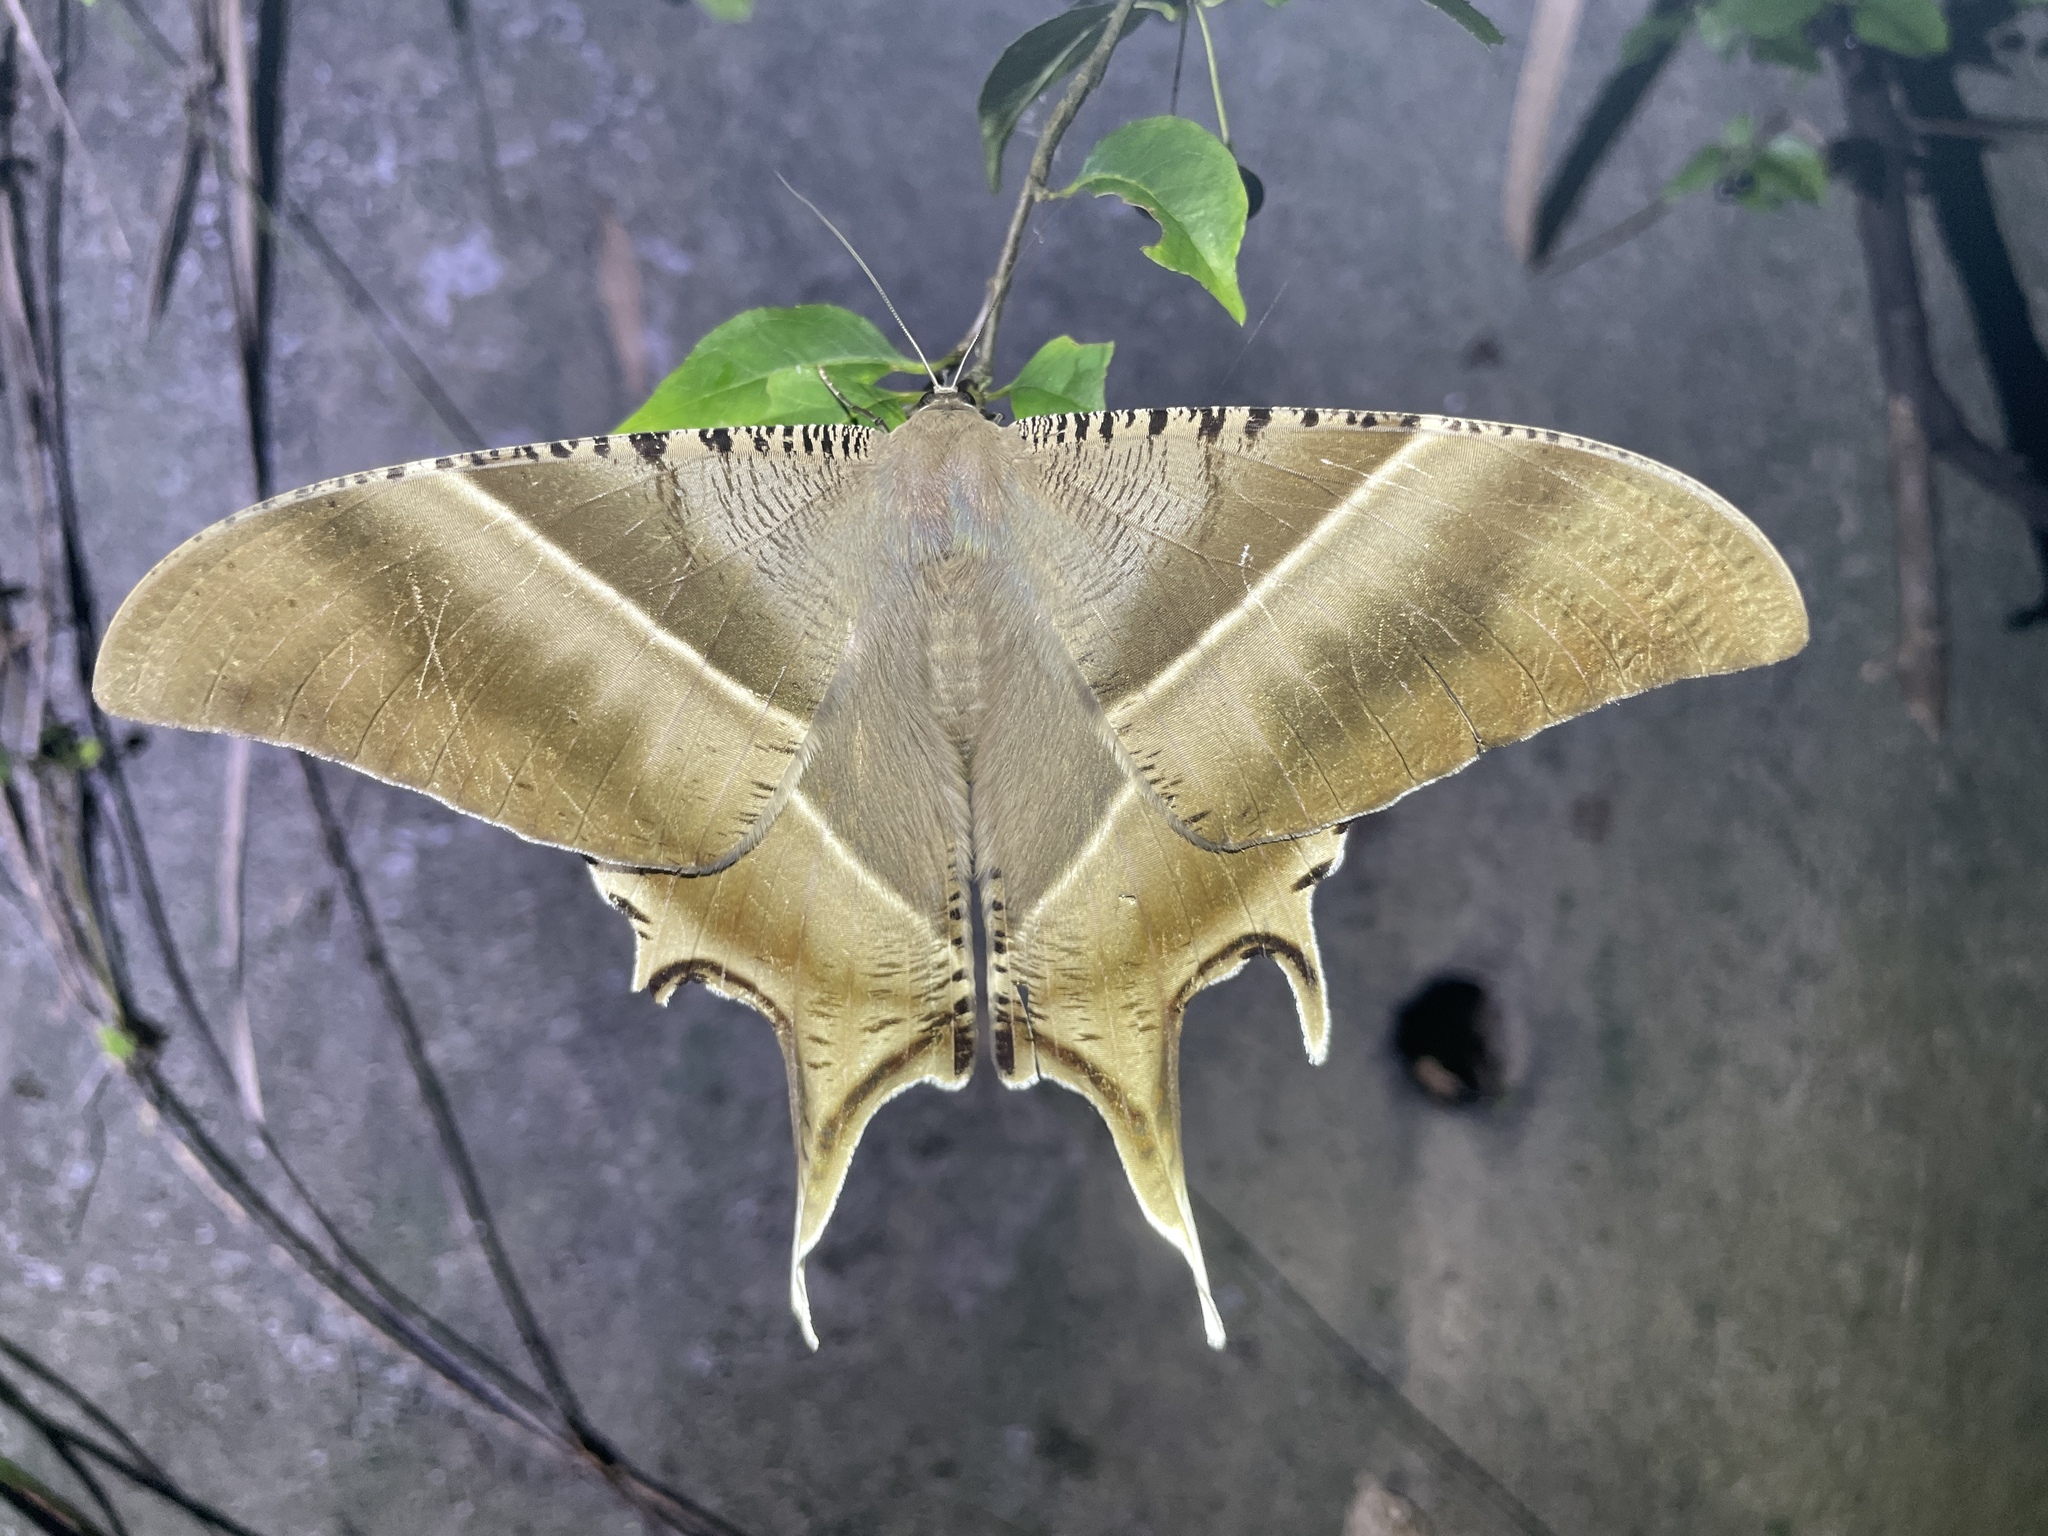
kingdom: Animalia
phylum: Arthropoda
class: Insecta
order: Lepidoptera
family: Uraniidae
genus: Lyssa
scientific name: Lyssa zampa
